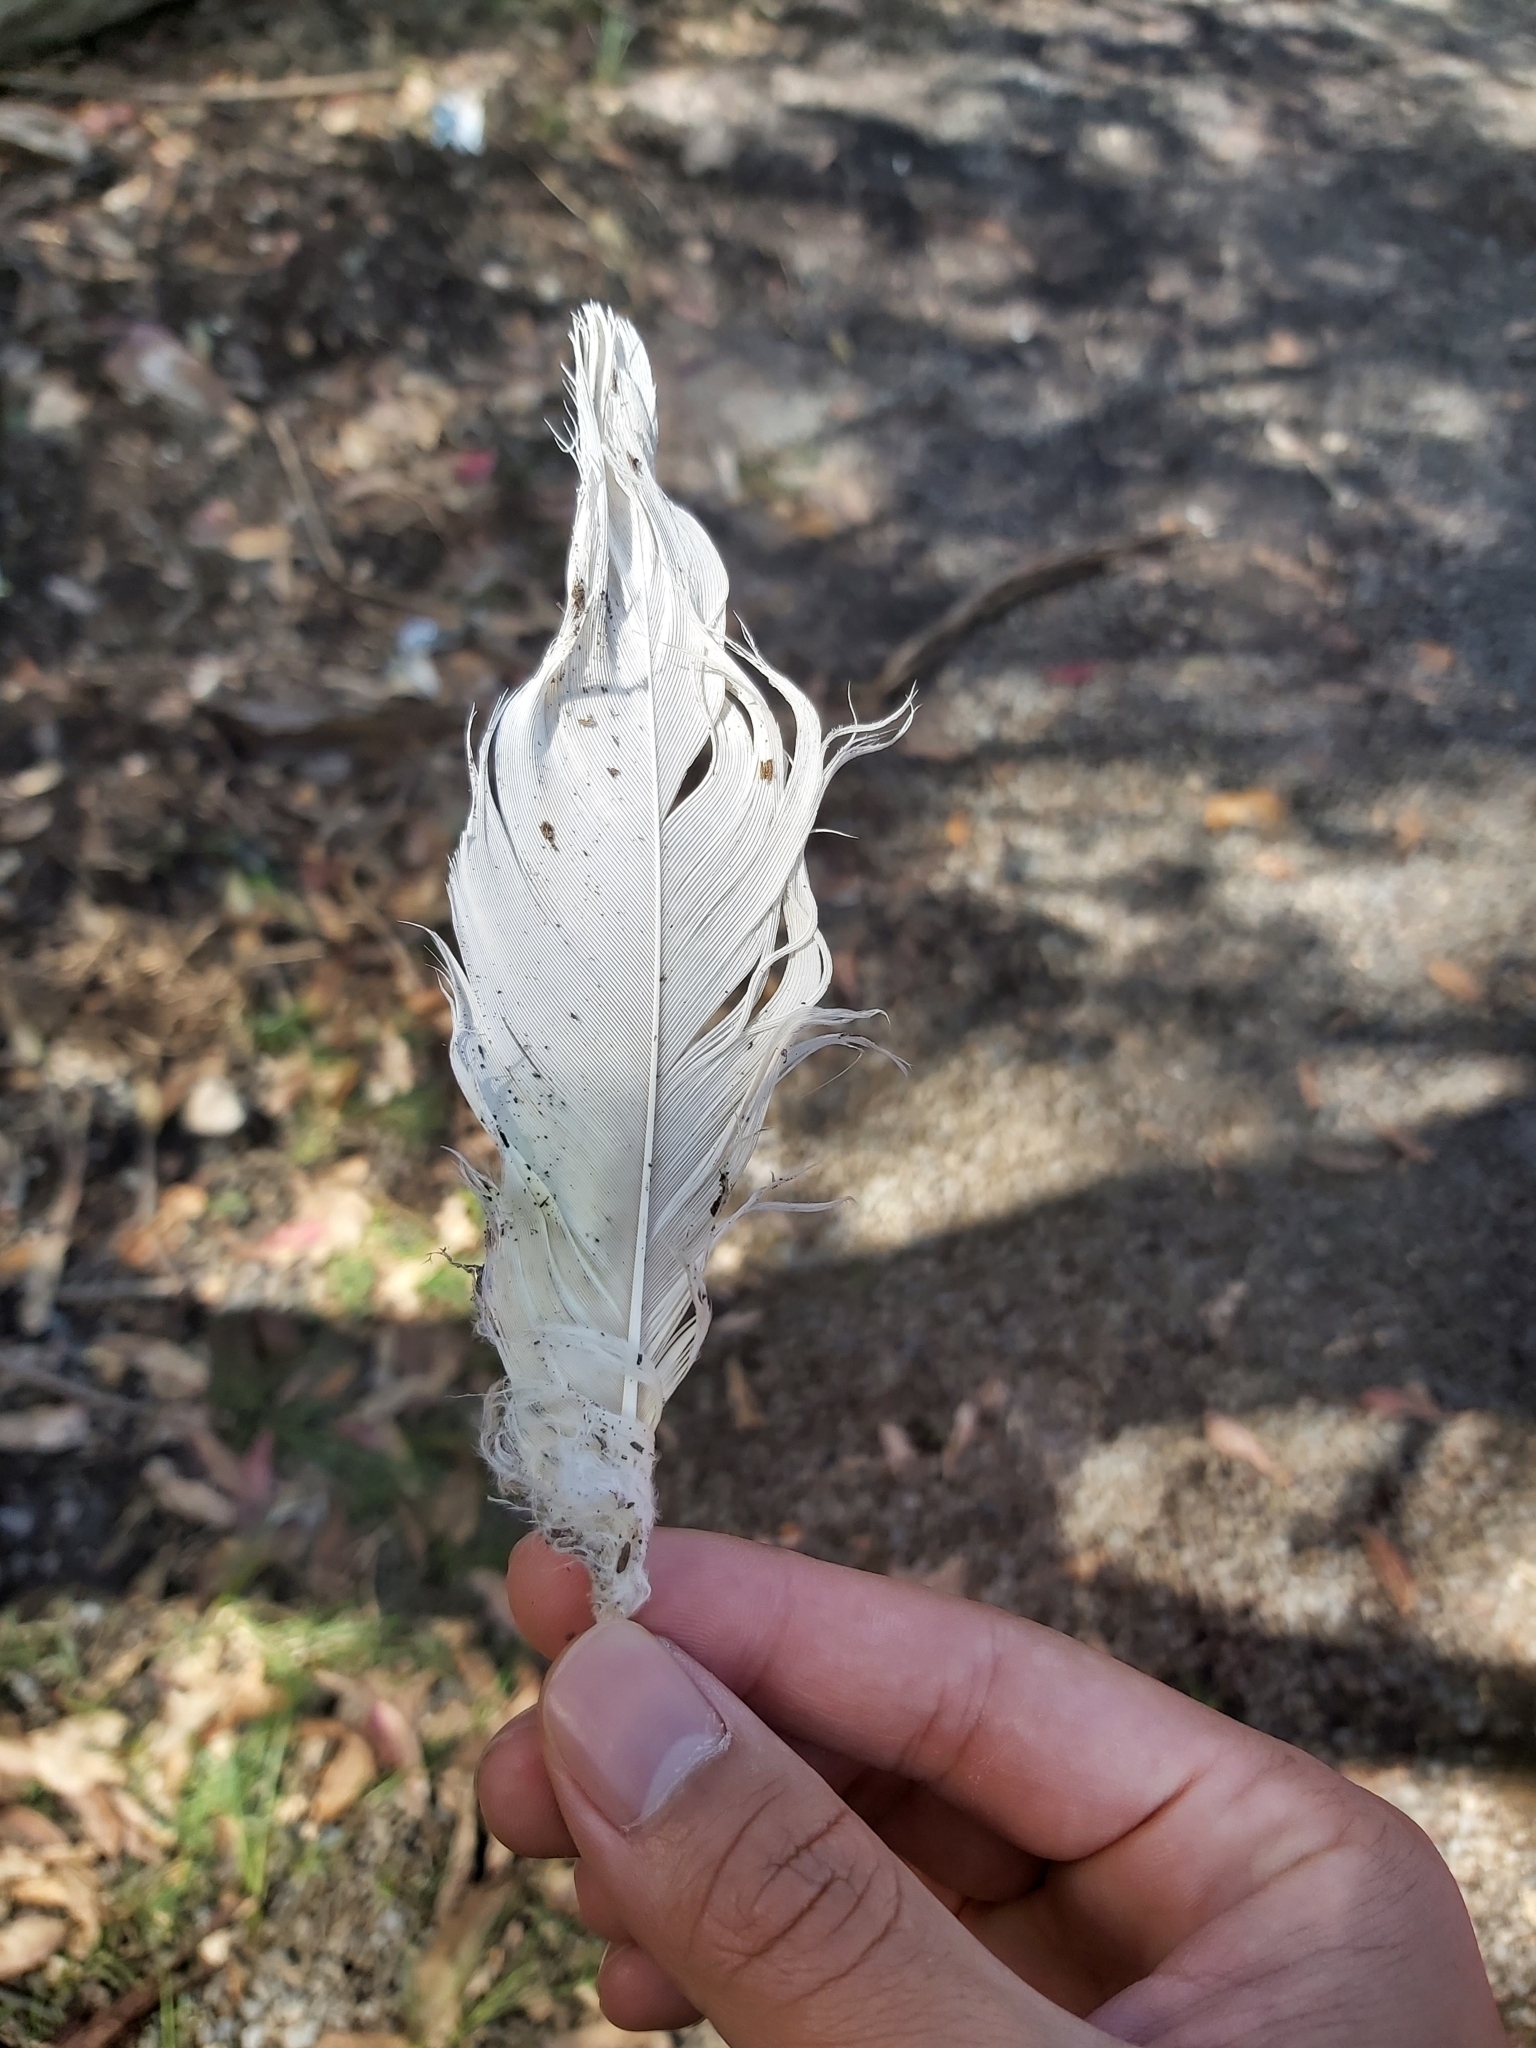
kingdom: Animalia
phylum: Chordata
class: Aves
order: Psittaciformes
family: Psittacidae
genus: Cacatua
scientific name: Cacatua galerita
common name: Sulphur-crested cockatoo
